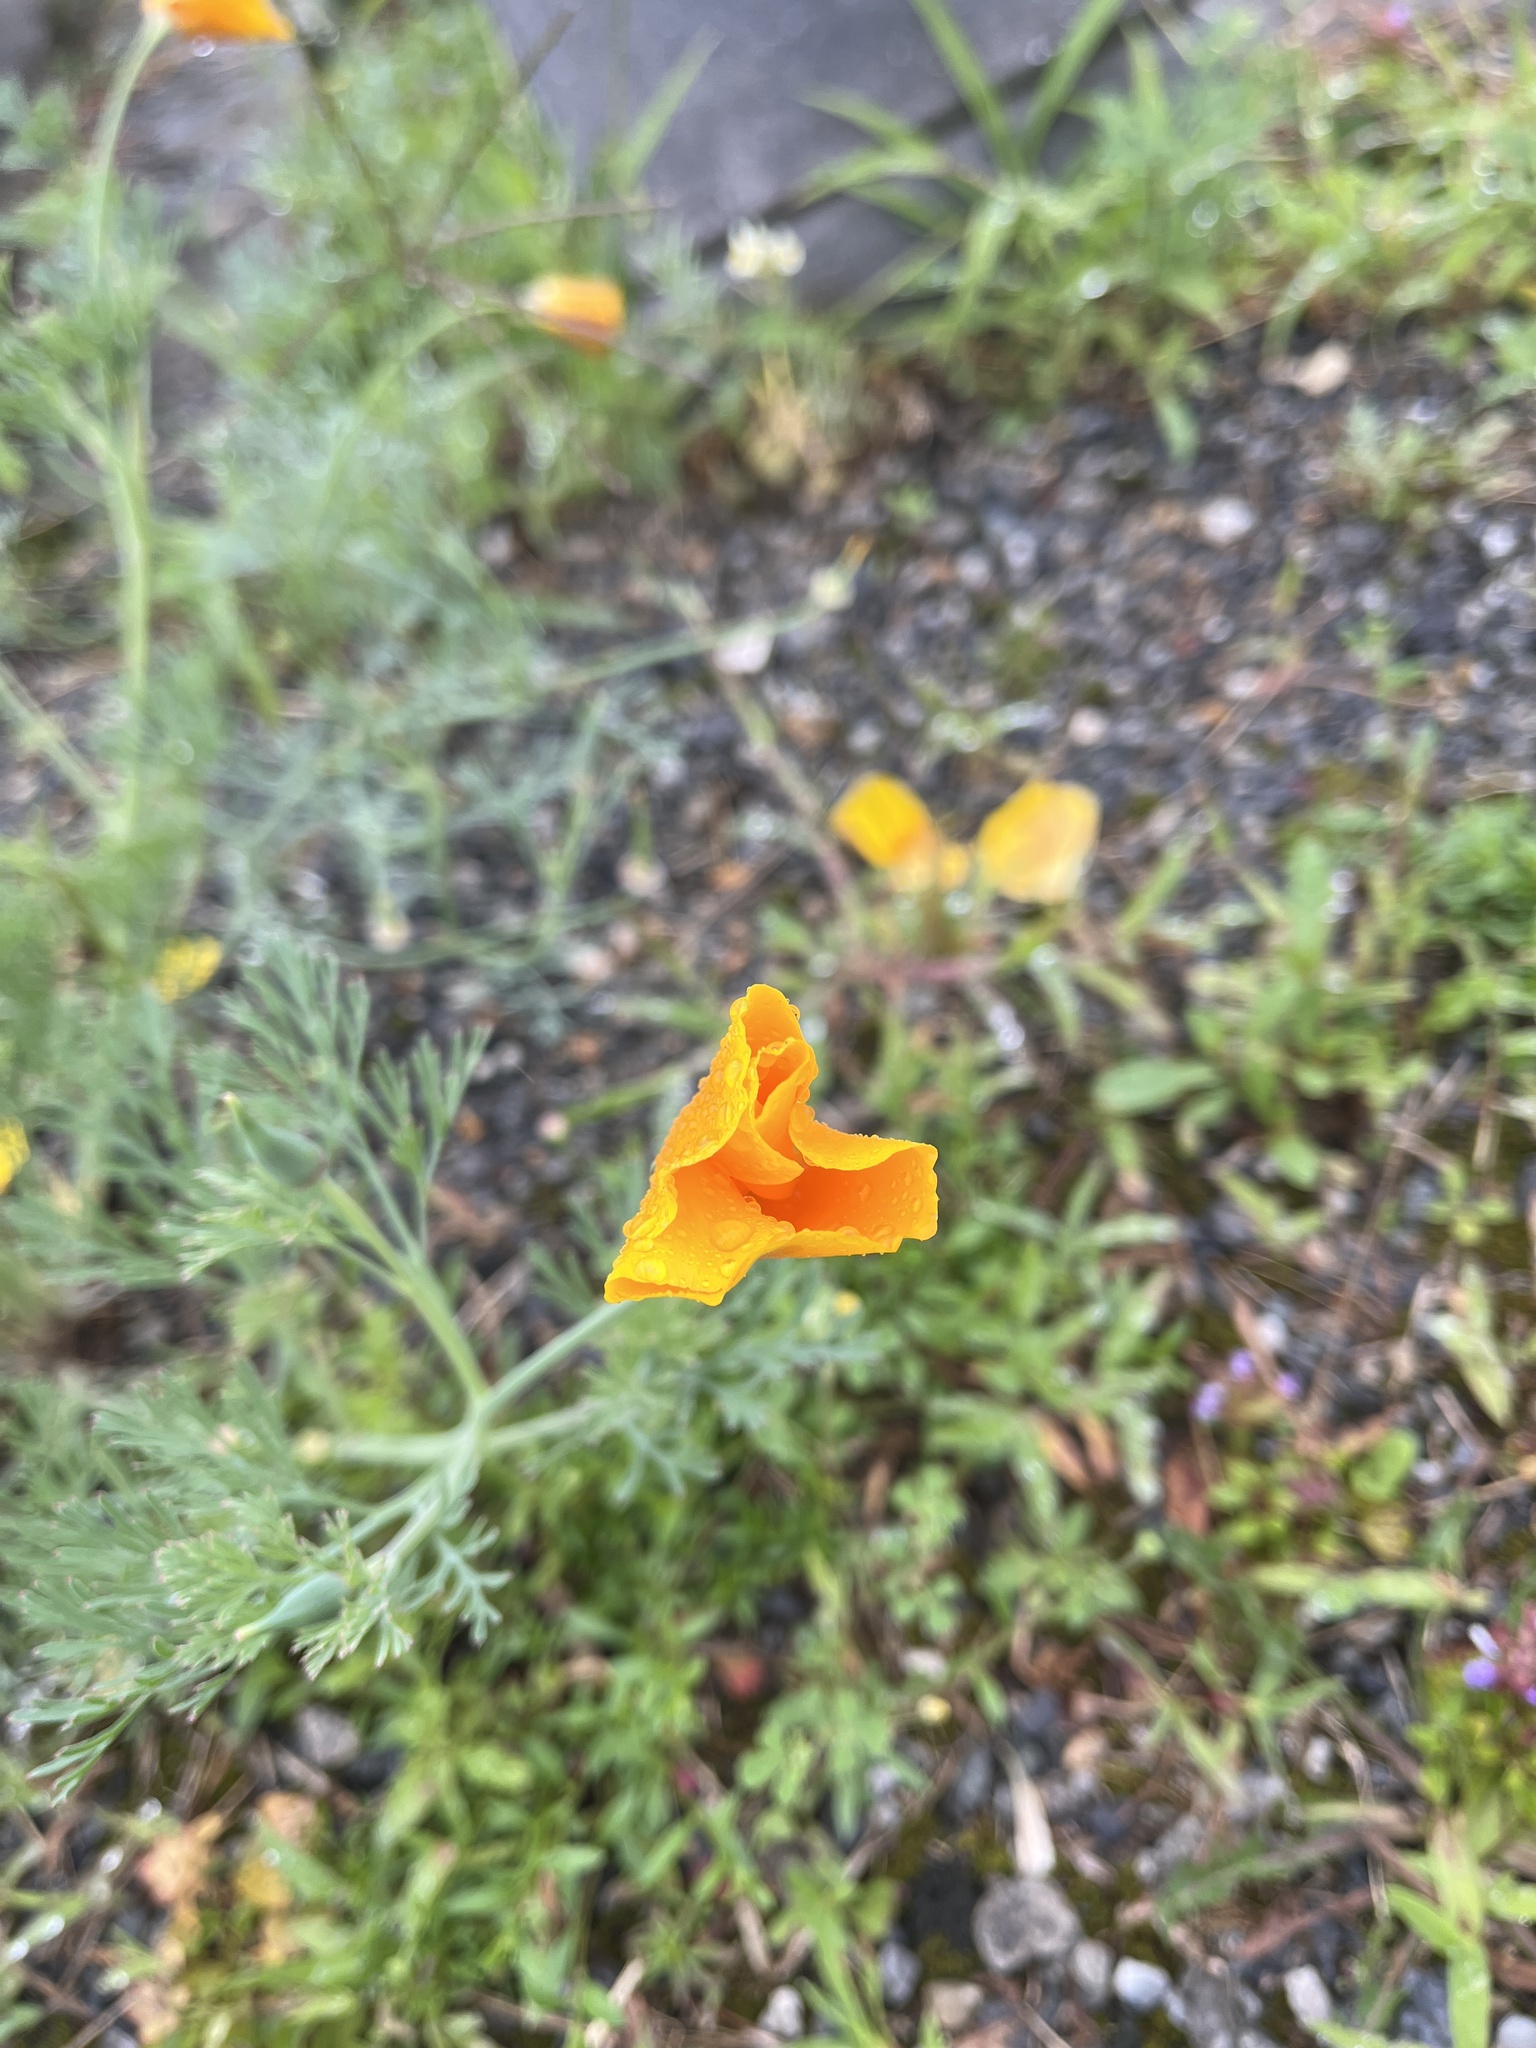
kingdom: Plantae
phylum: Tracheophyta
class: Magnoliopsida
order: Ranunculales
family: Papaveraceae
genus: Eschscholzia
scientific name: Eschscholzia californica
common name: California poppy
